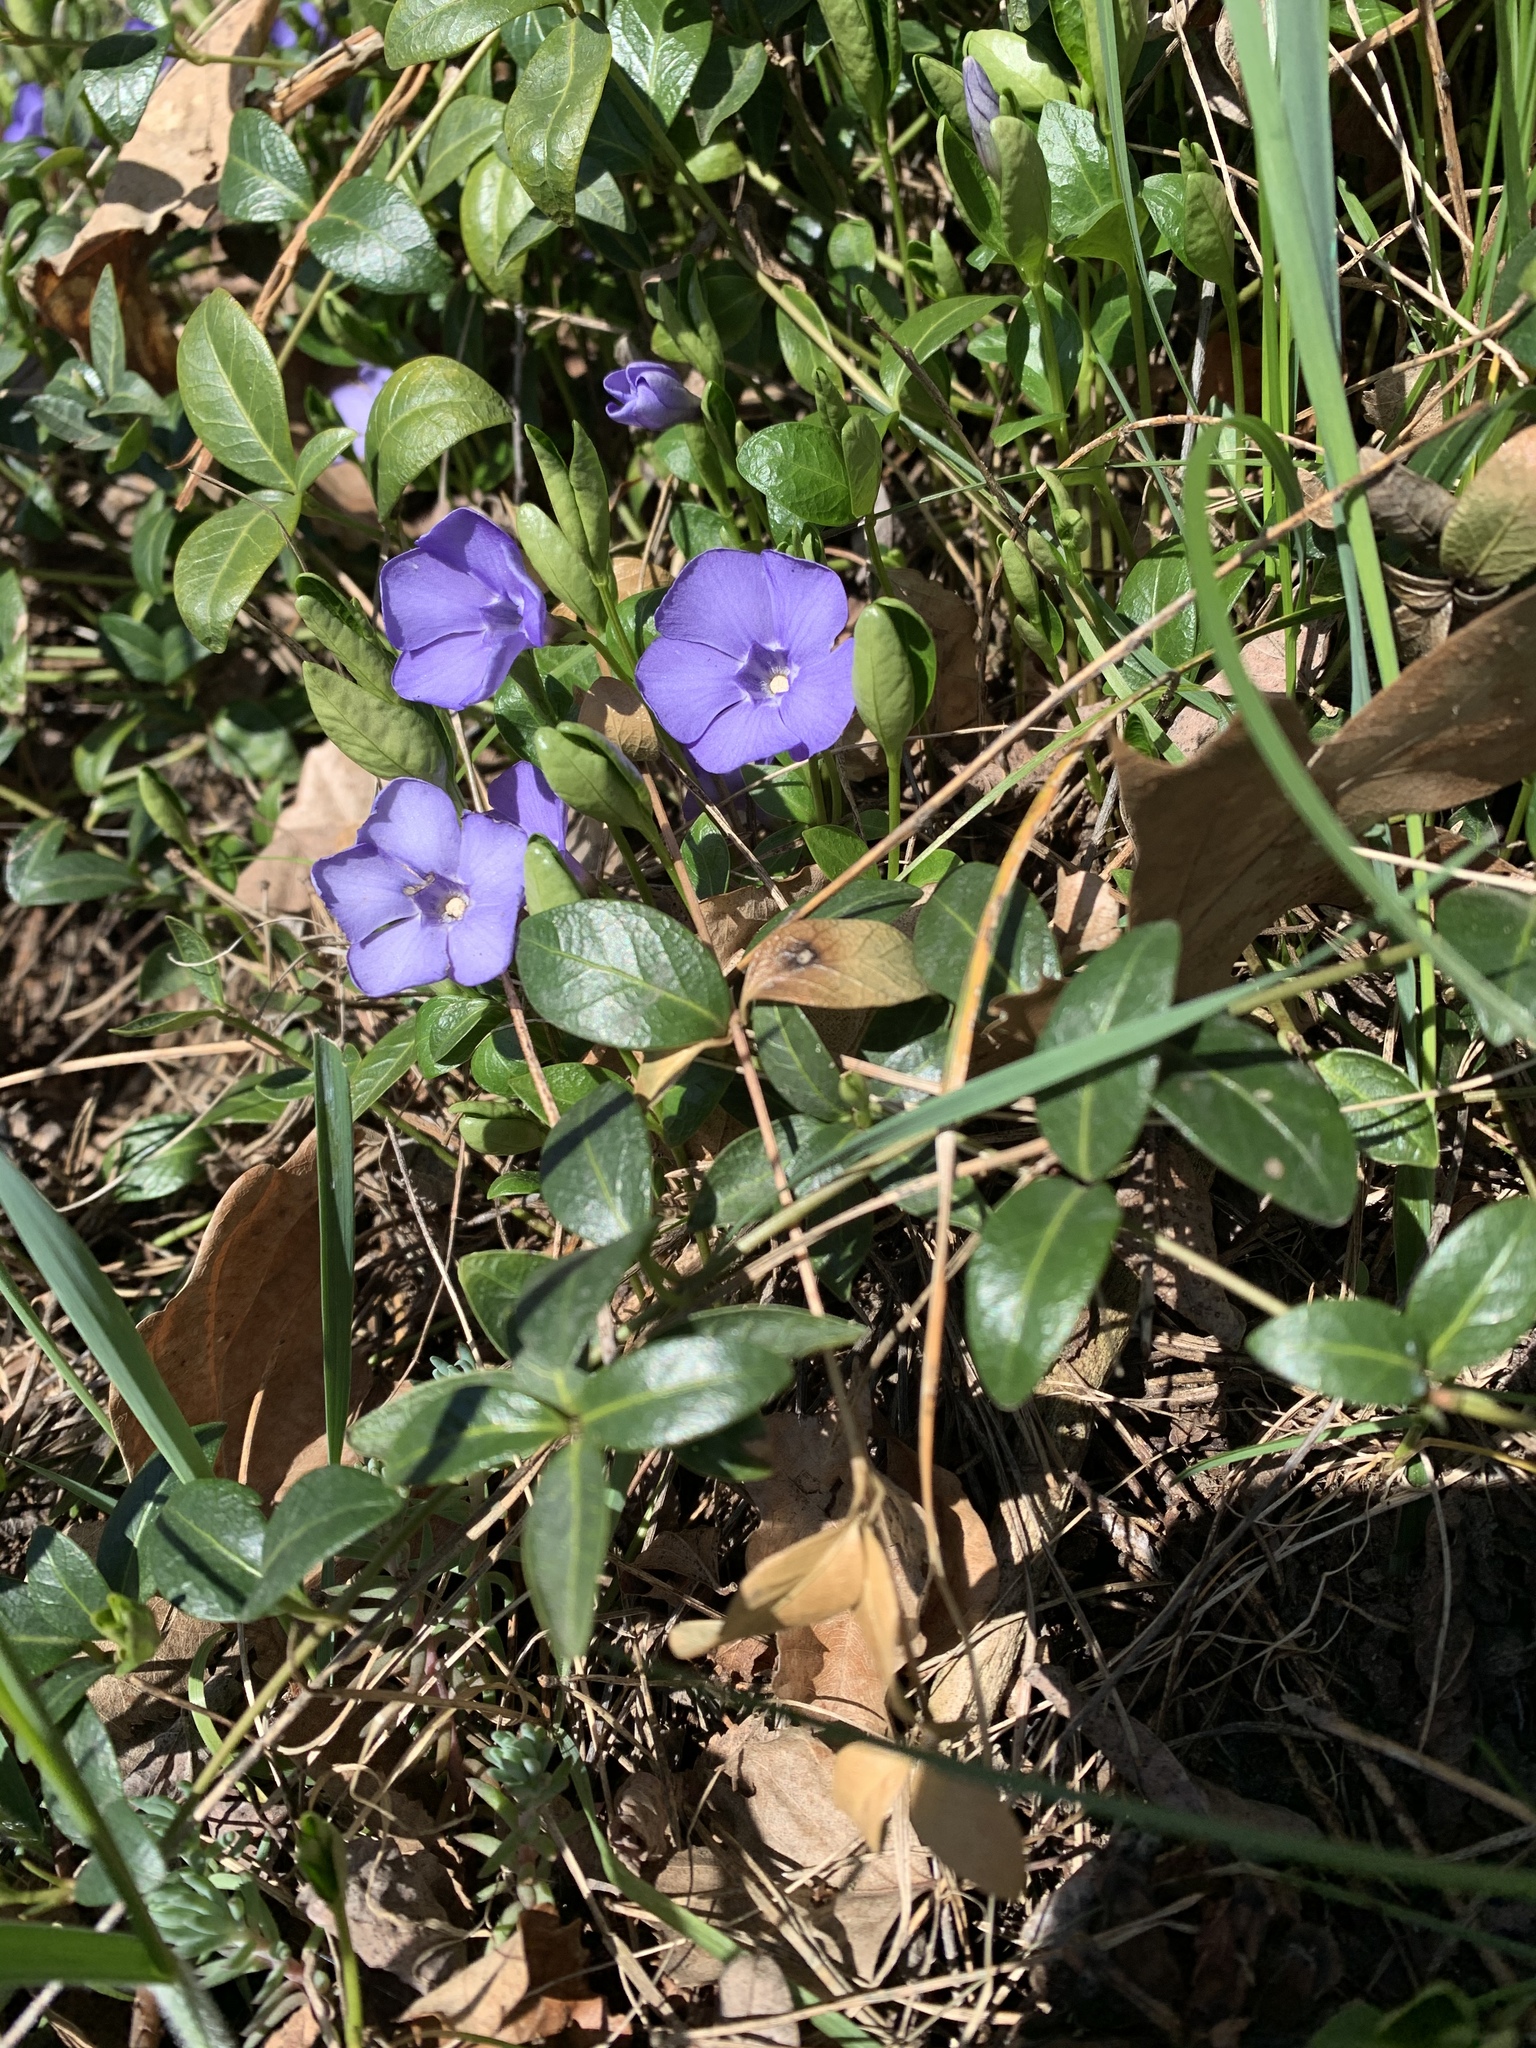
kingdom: Plantae
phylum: Tracheophyta
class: Magnoliopsida
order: Gentianales
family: Apocynaceae
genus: Vinca
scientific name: Vinca minor
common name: Lesser periwinkle
